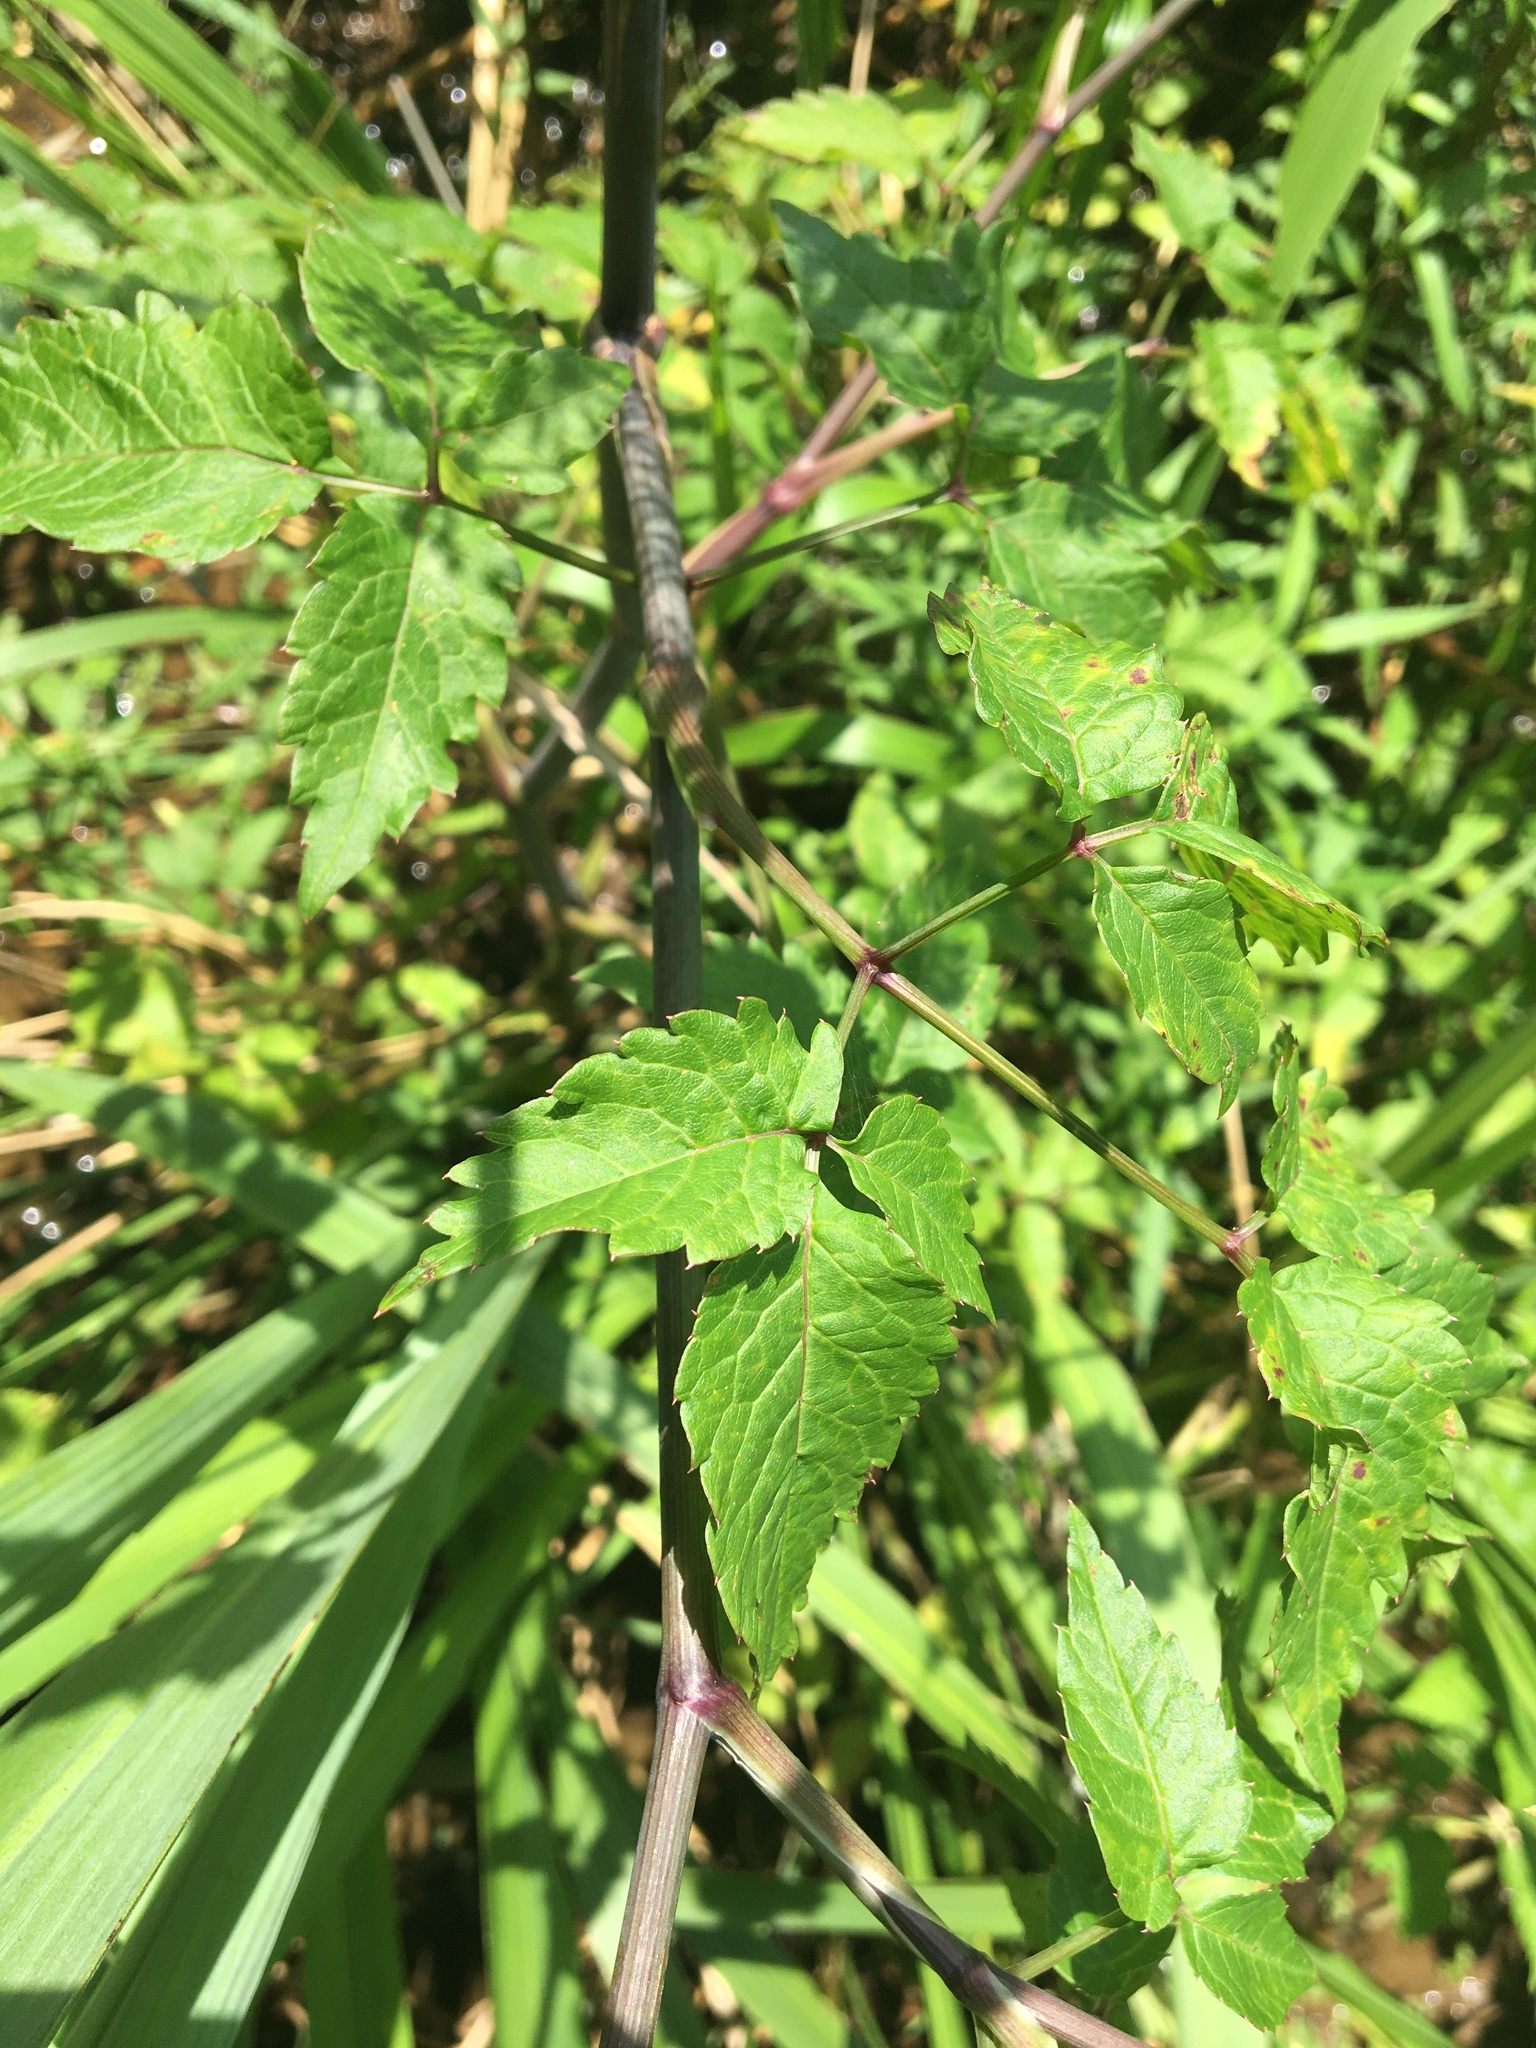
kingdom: Plantae
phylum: Tracheophyta
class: Magnoliopsida
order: Apiales
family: Apiaceae
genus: Cicuta
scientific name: Cicuta maculata
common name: Spotted cowbane
